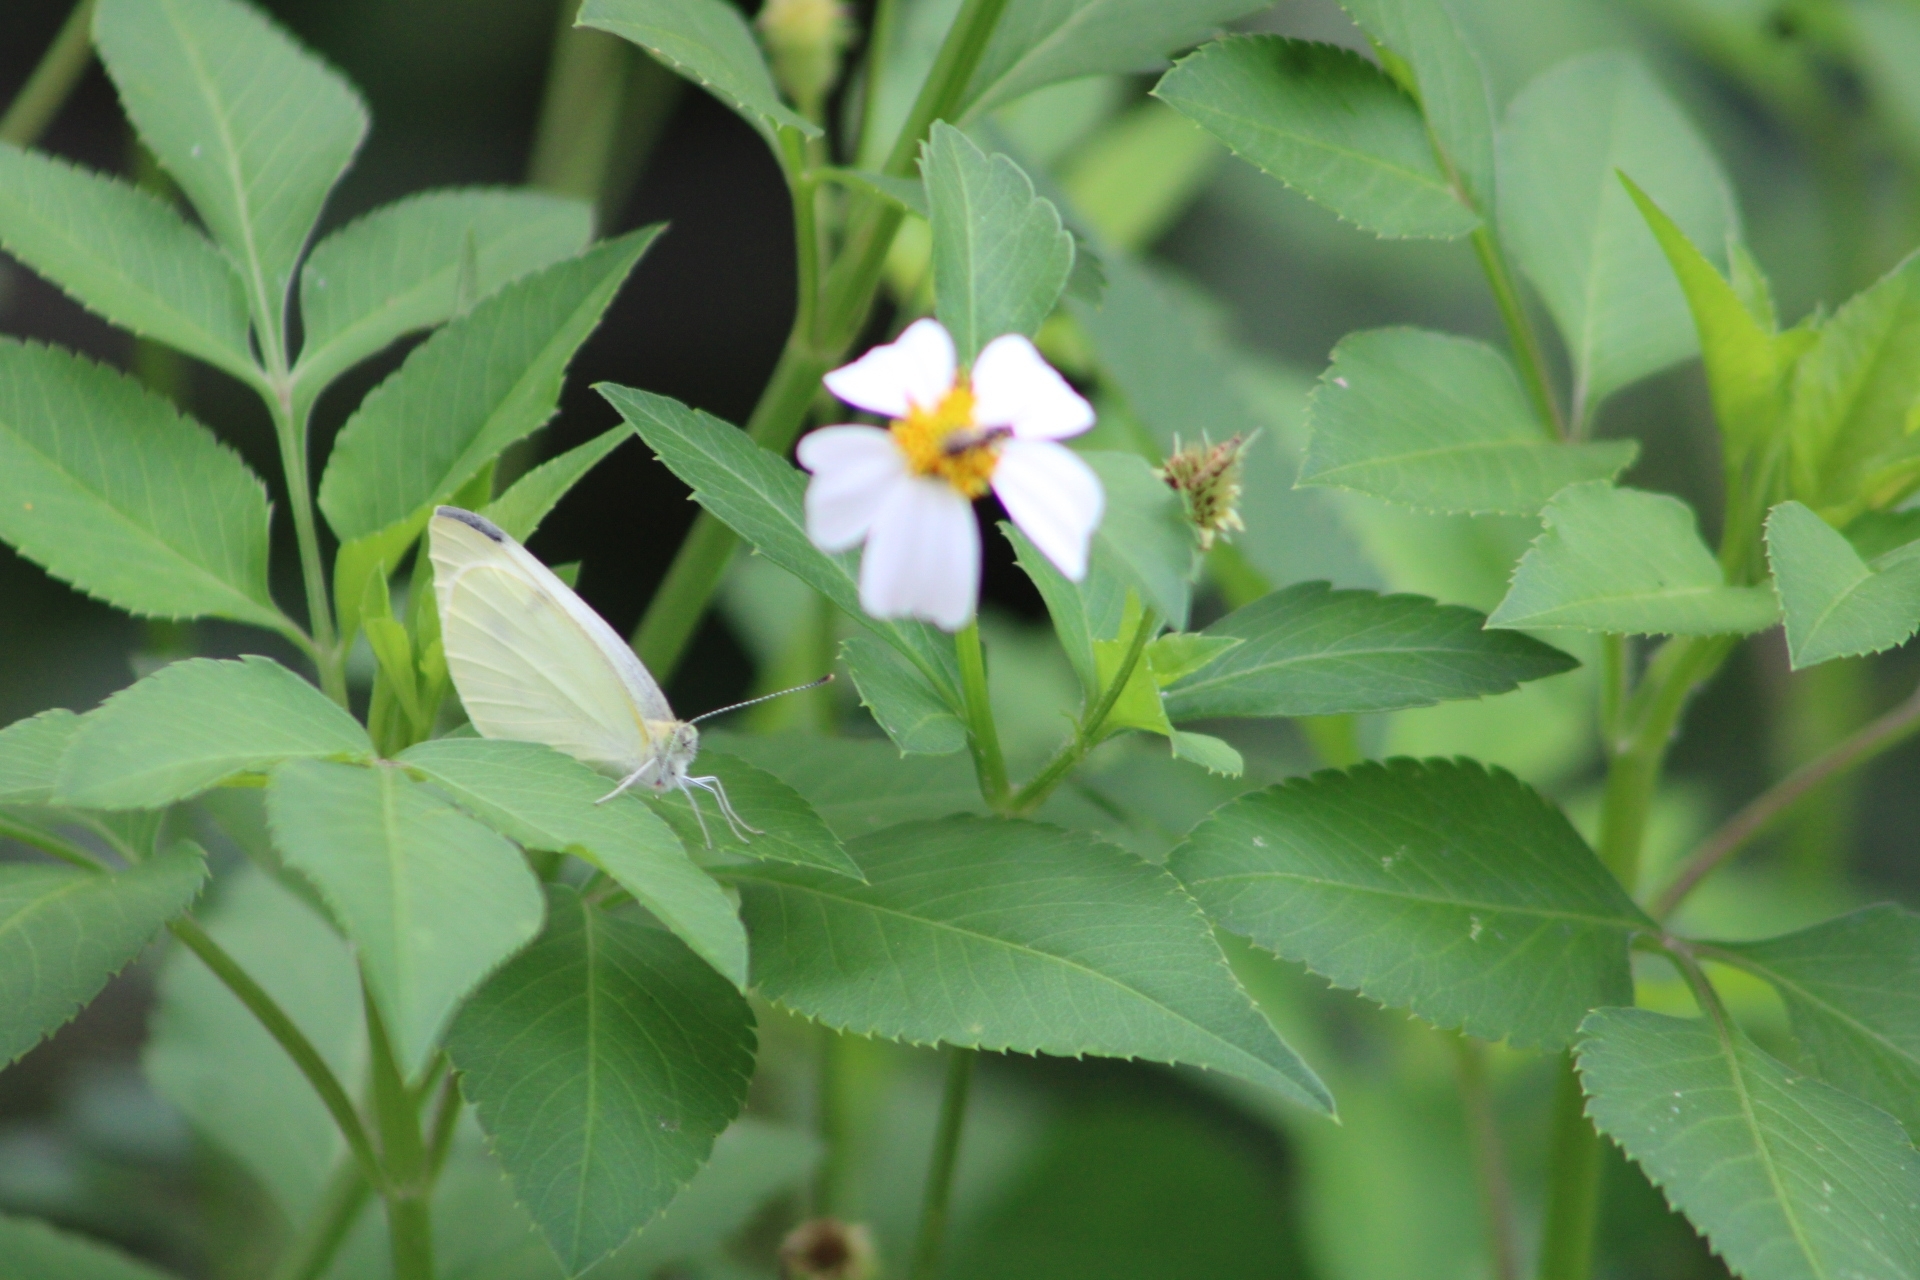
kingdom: Animalia
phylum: Arthropoda
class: Insecta
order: Lepidoptera
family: Pieridae
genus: Pieris
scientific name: Pieris rapae
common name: Small white
